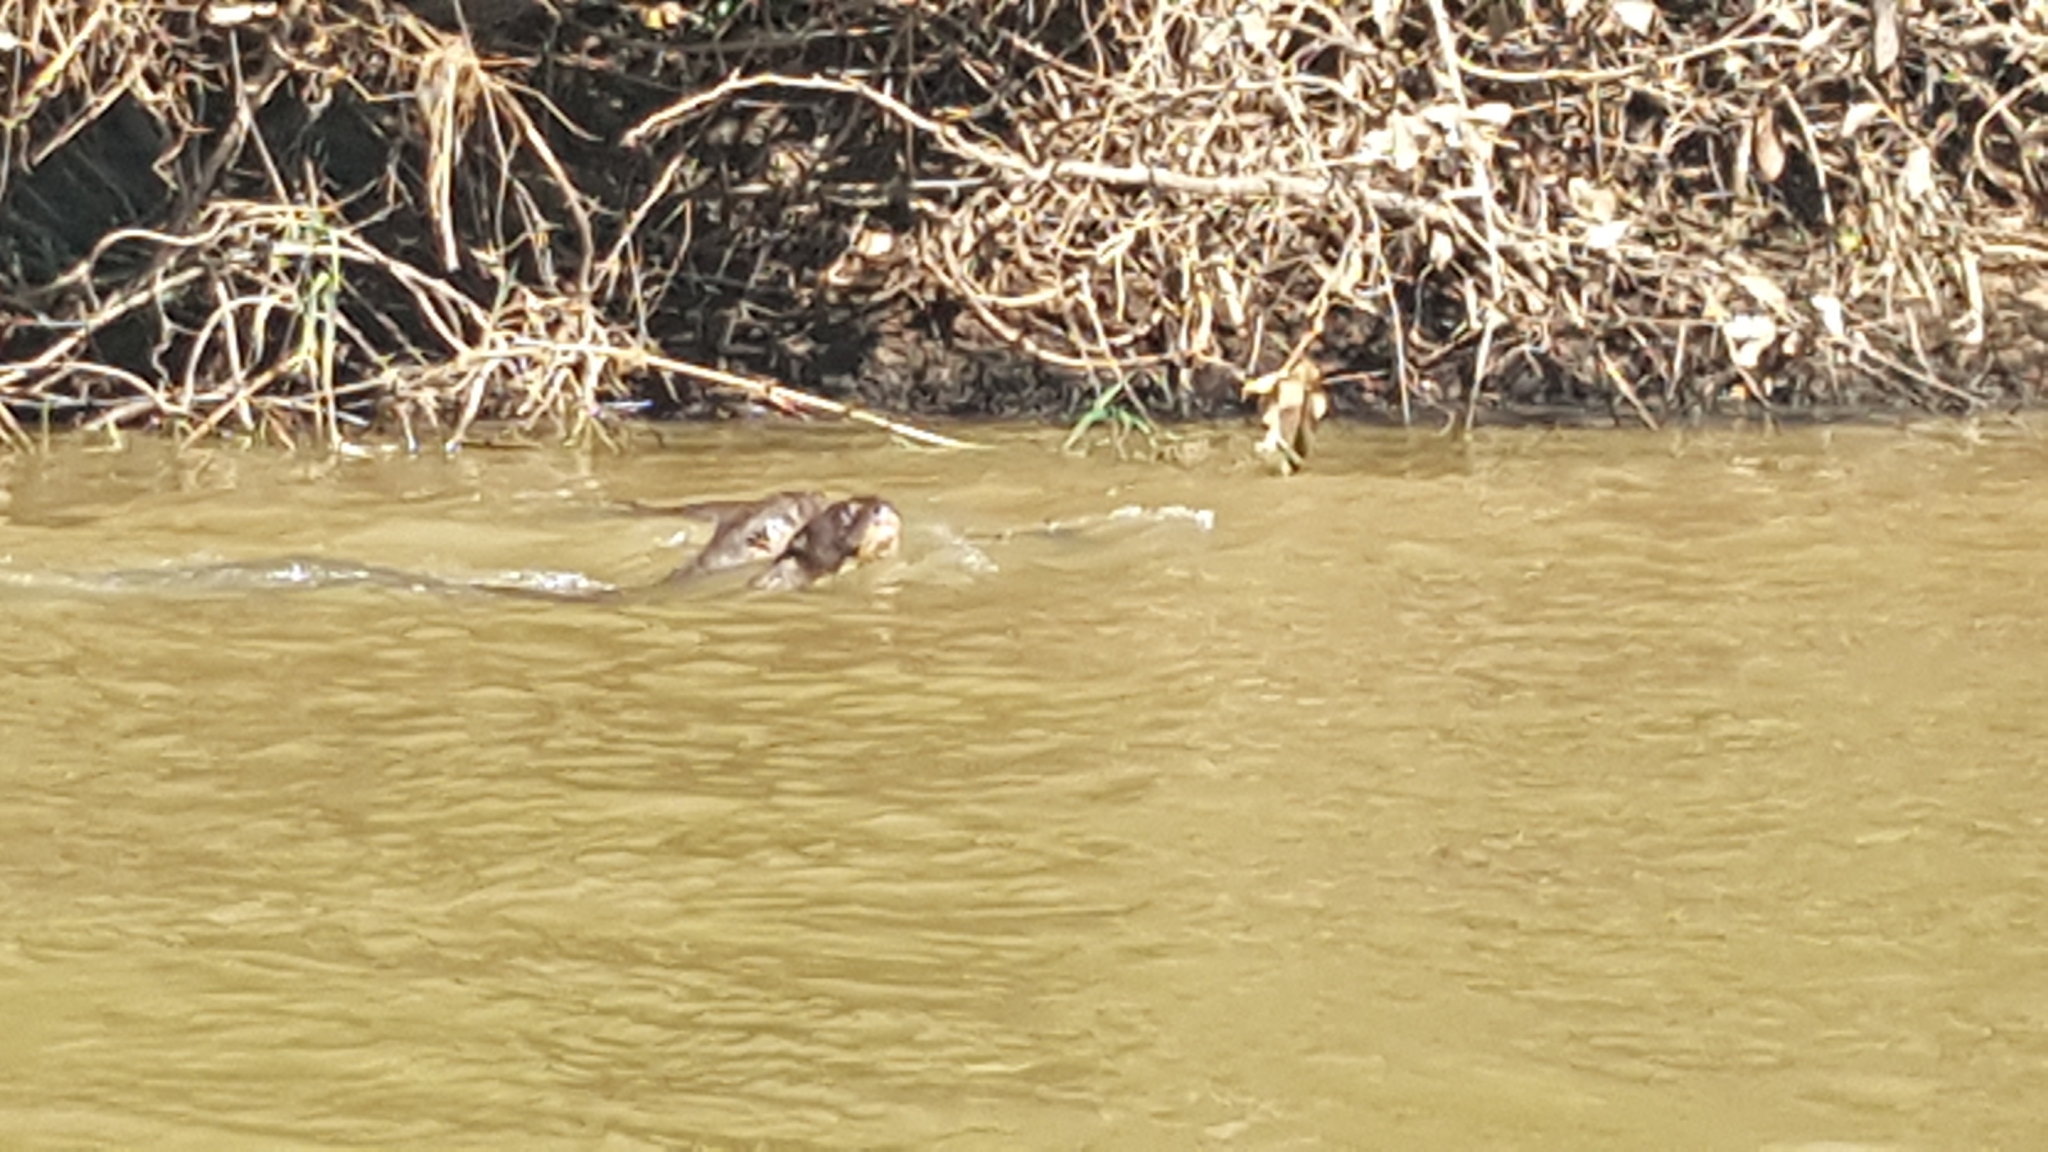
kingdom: Animalia
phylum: Chordata
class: Mammalia
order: Carnivora
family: Mustelidae
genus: Pteronura
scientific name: Pteronura brasiliensis
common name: Giant otter
